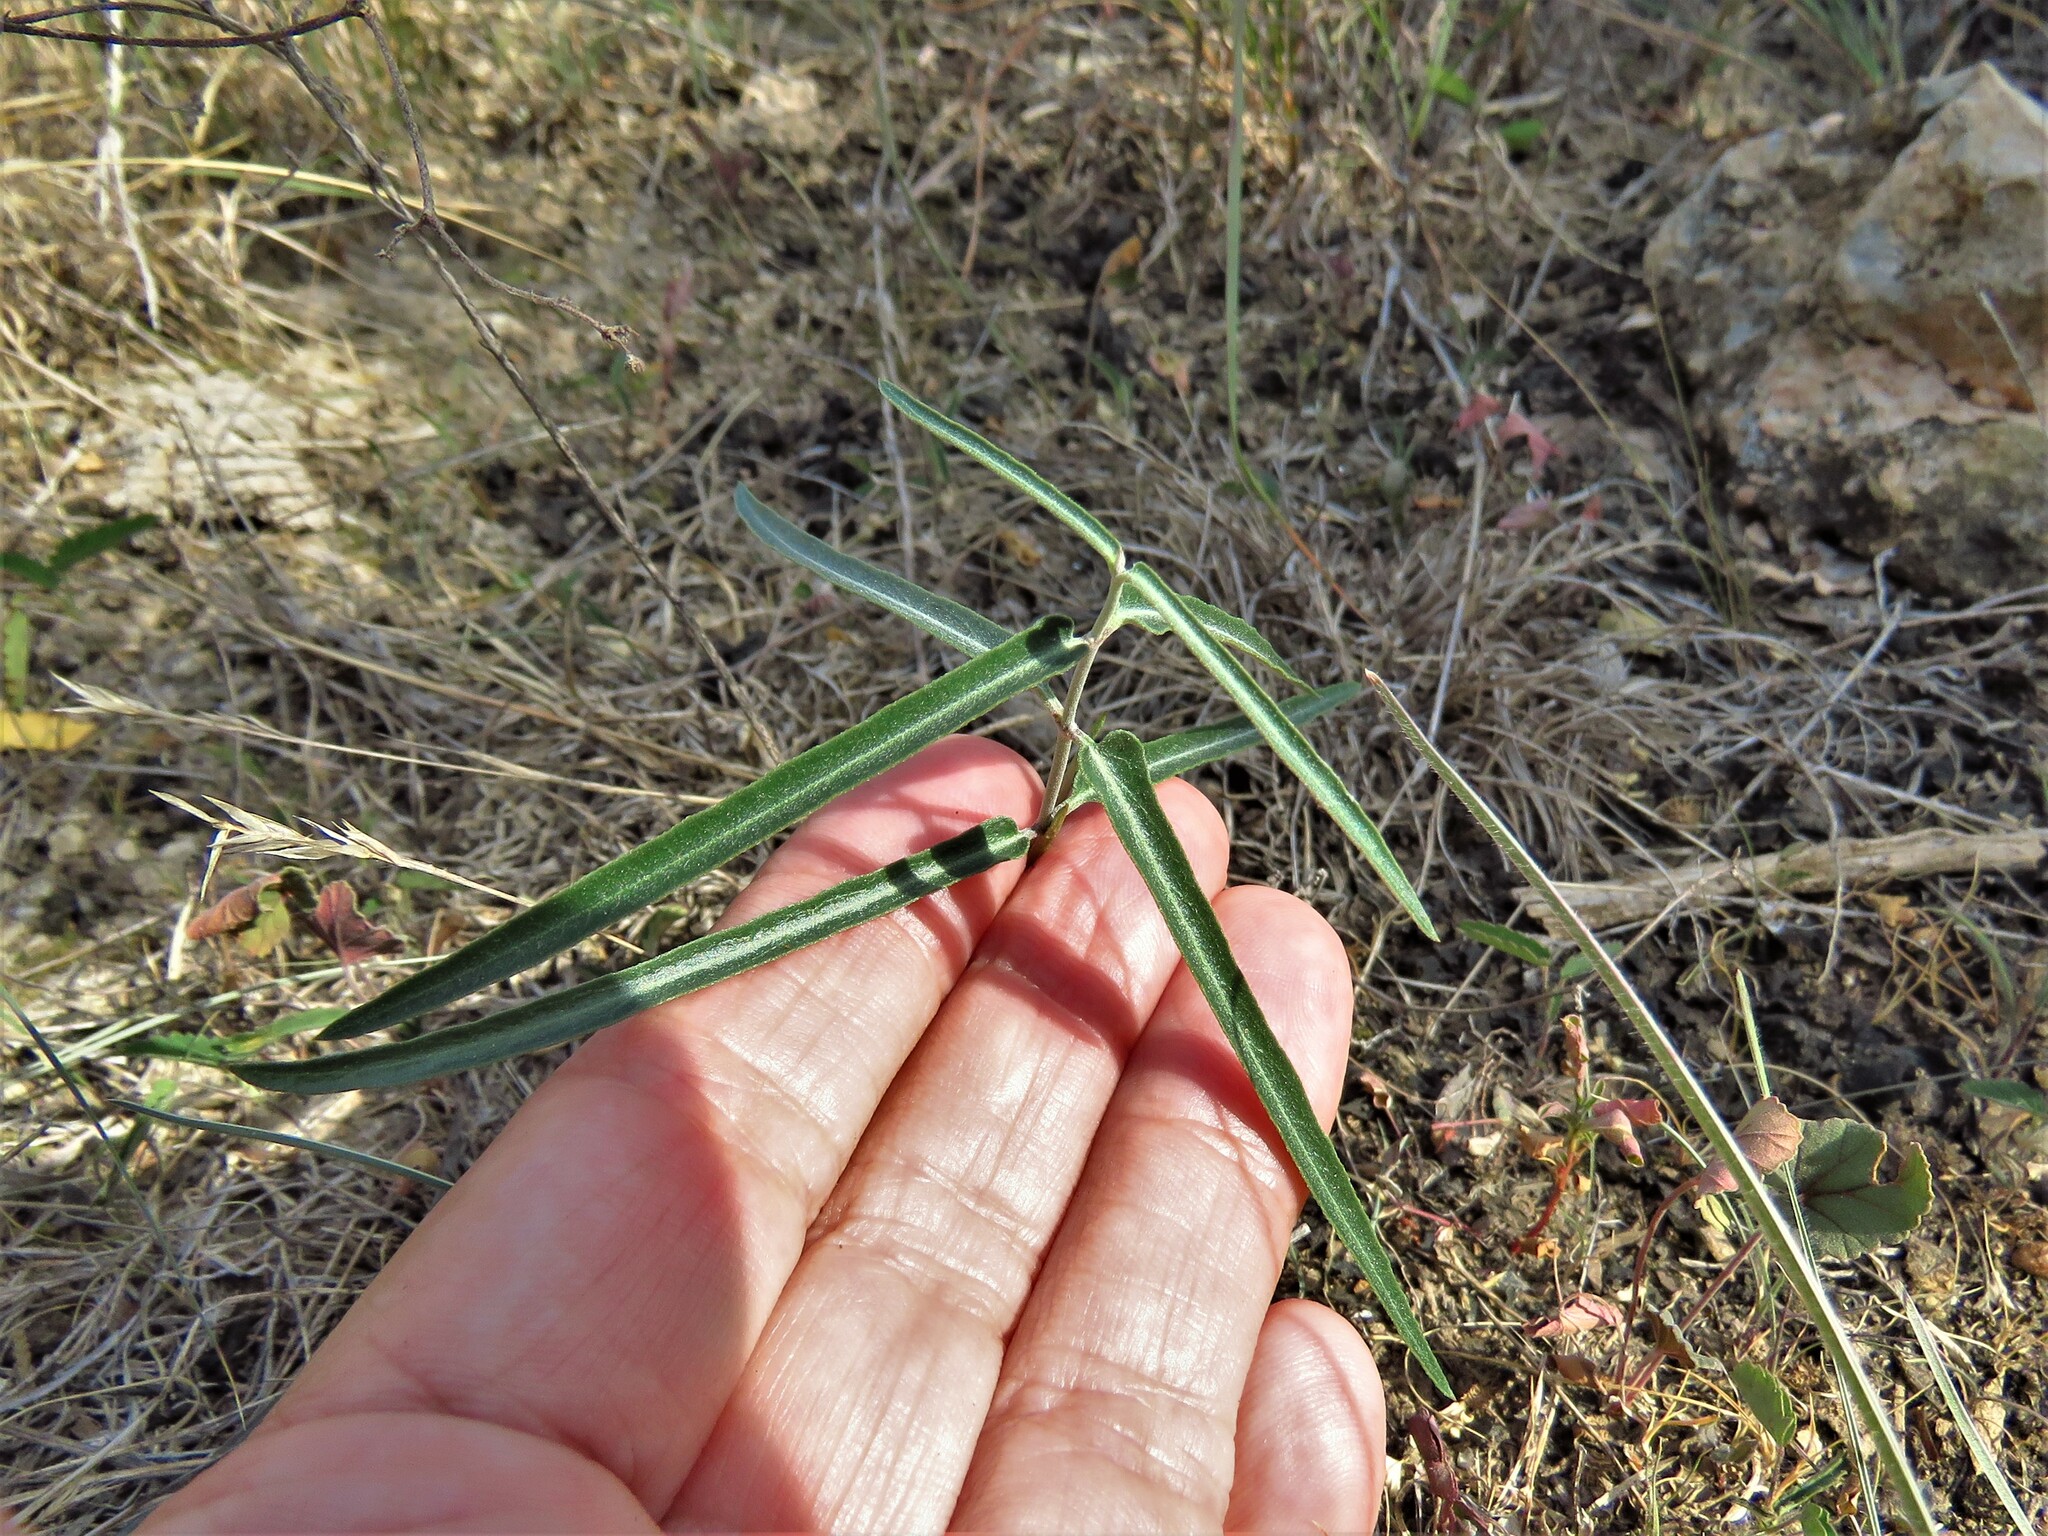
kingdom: Plantae
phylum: Tracheophyta
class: Magnoliopsida
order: Gentianales
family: Apocynaceae
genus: Funastrum
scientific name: Funastrum crispum
